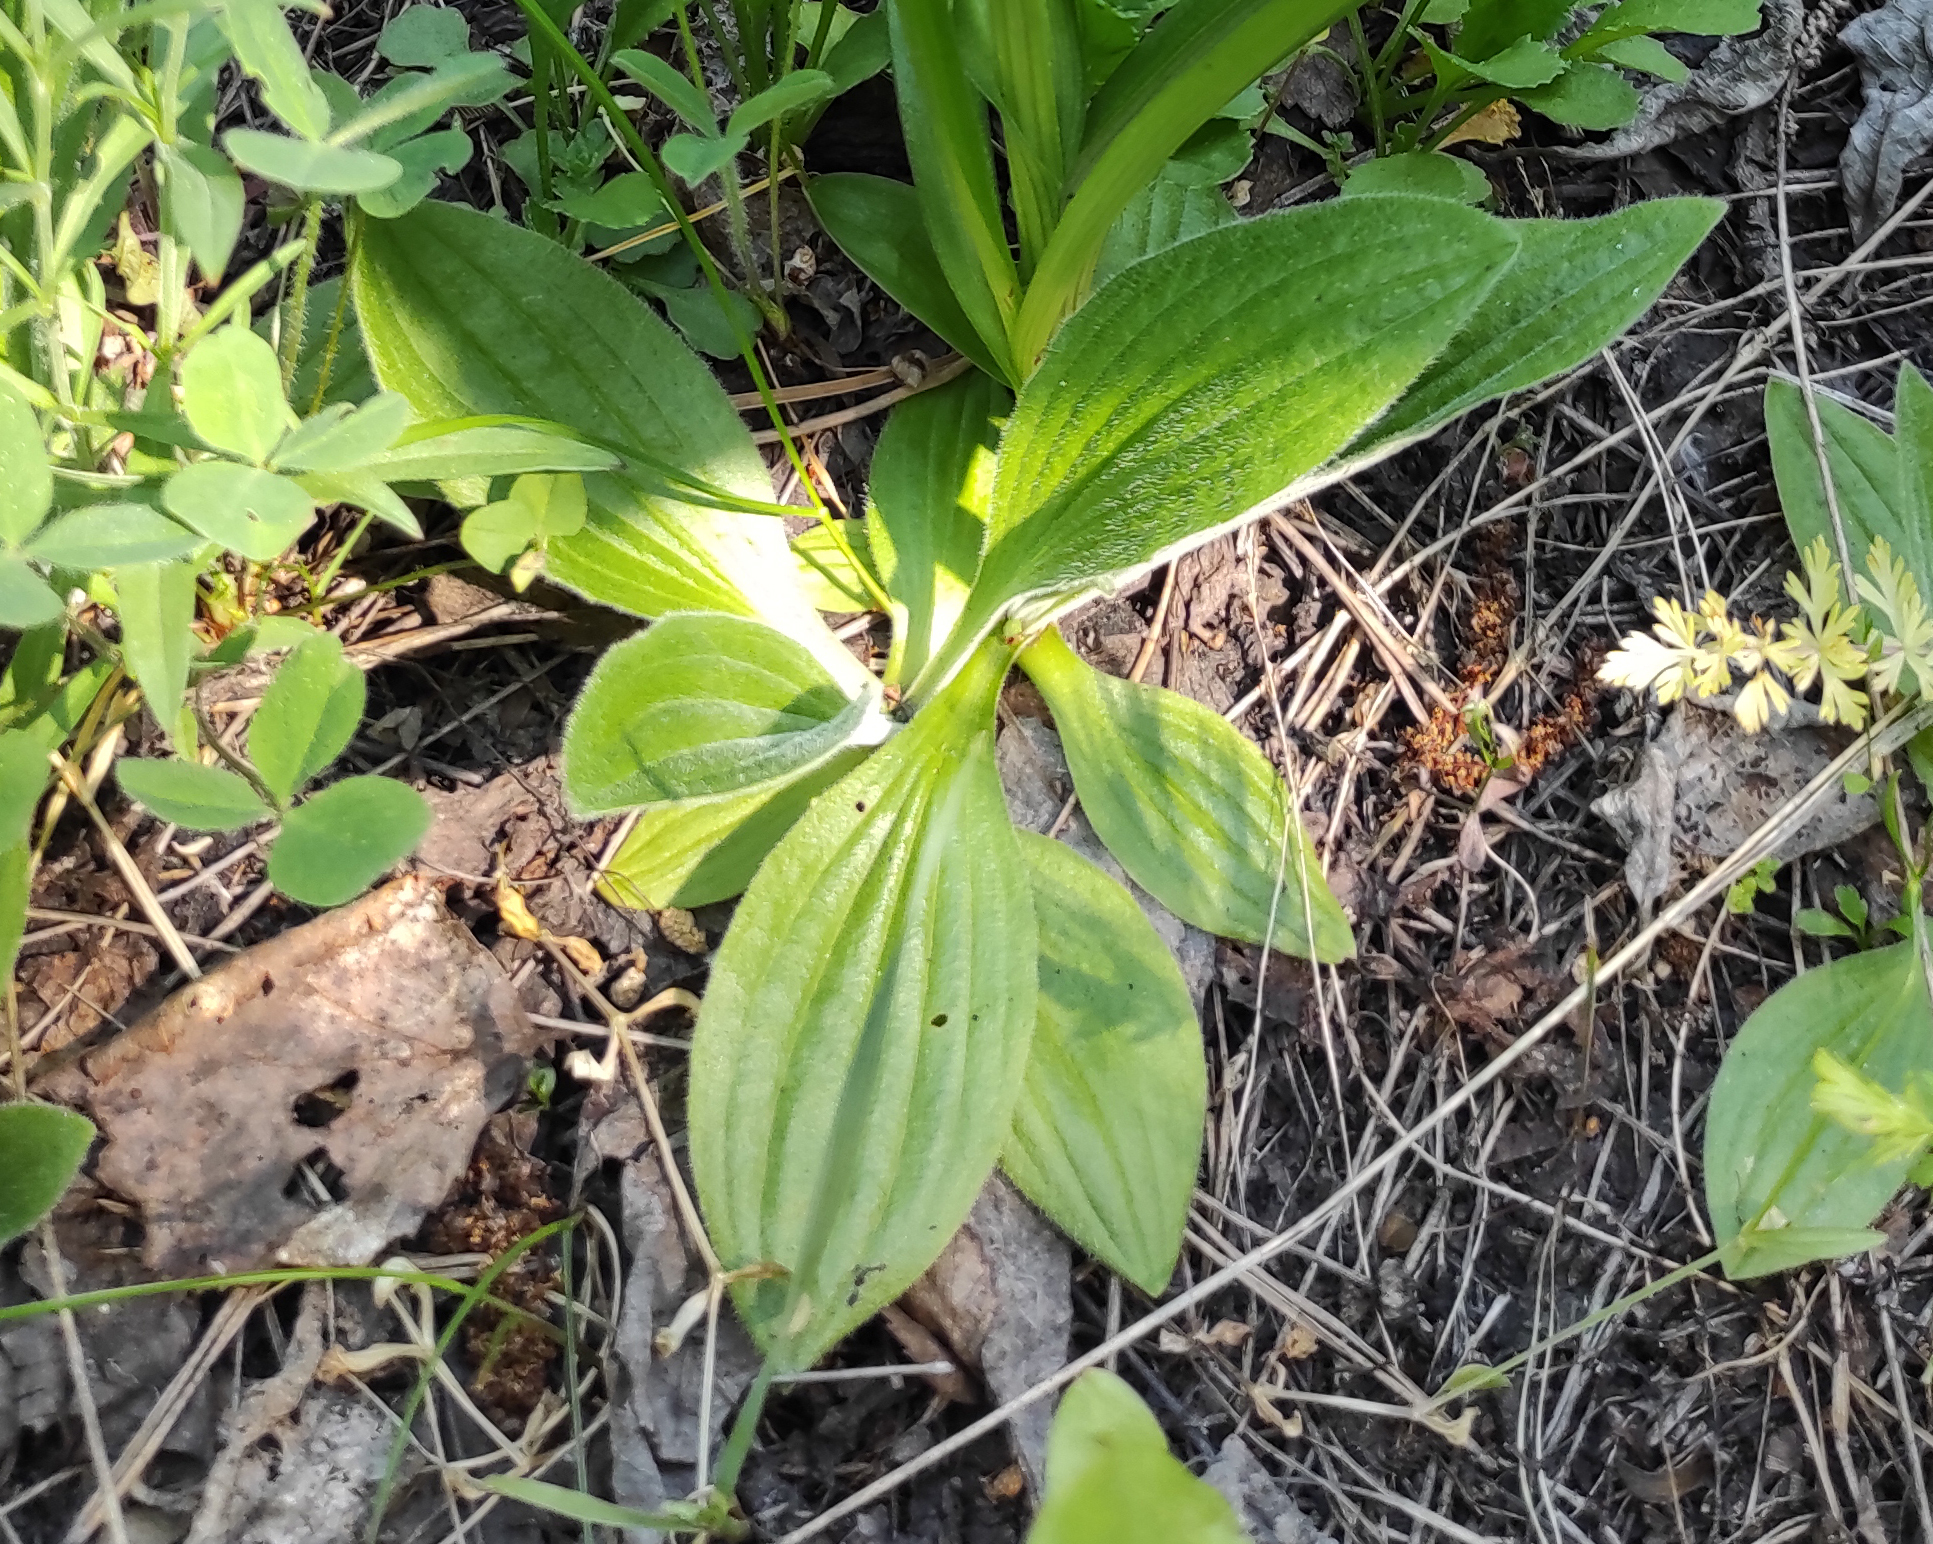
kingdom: Plantae
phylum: Tracheophyta
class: Magnoliopsida
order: Lamiales
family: Plantaginaceae
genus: Plantago
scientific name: Plantago media
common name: Hoary plantain
